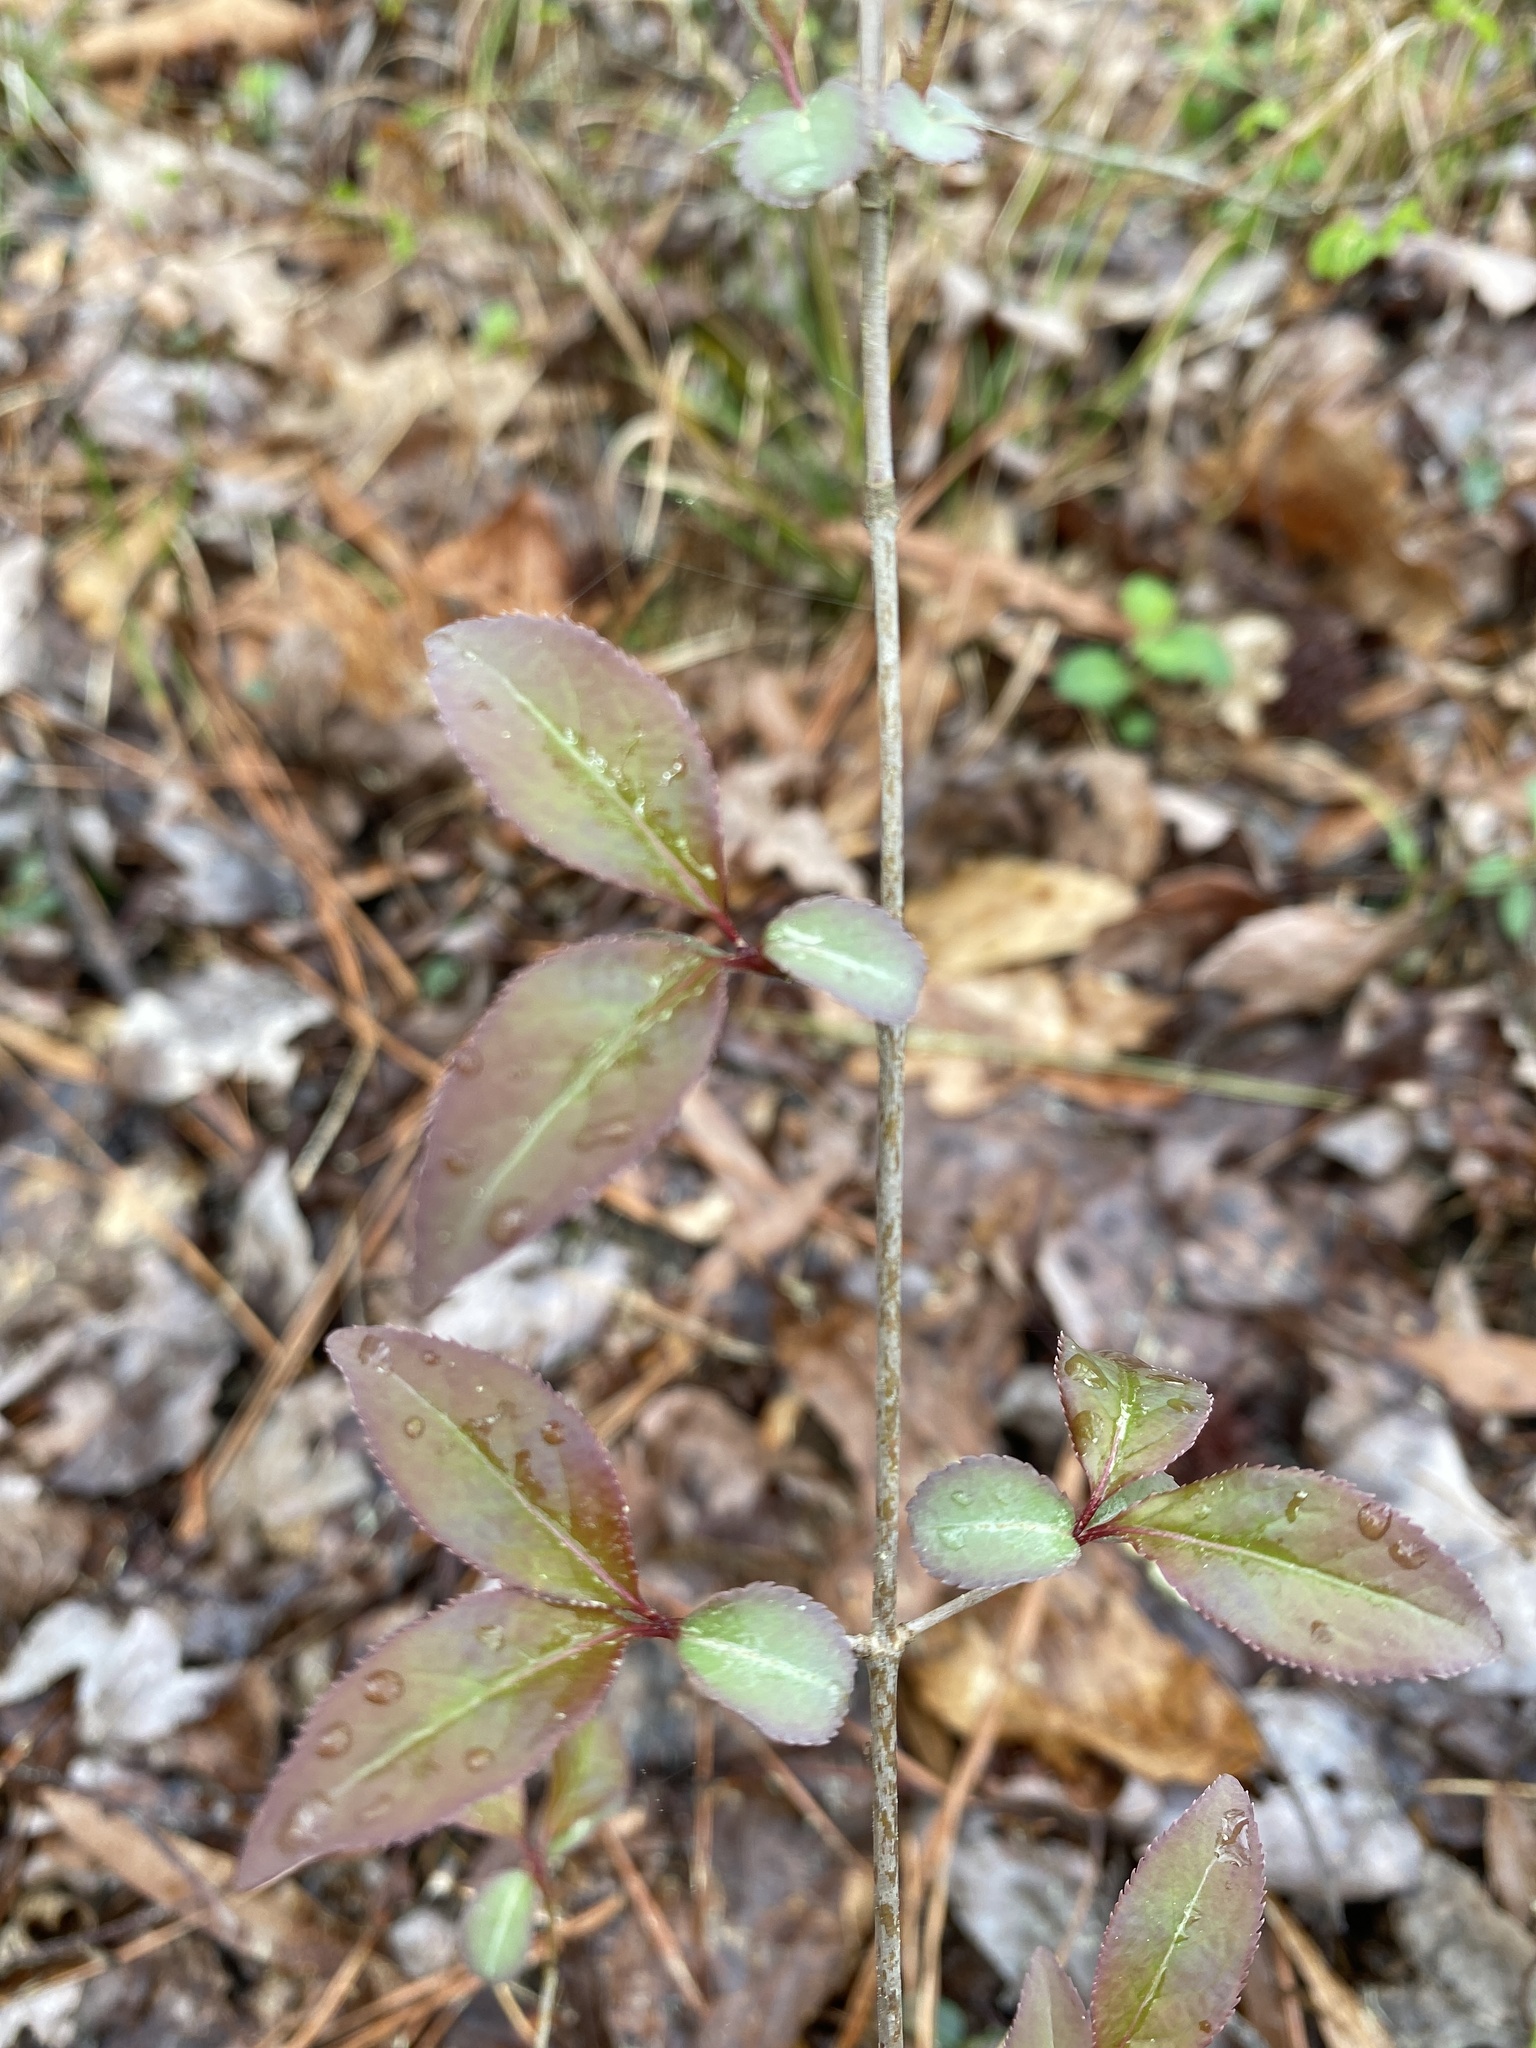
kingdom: Plantae
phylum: Tracheophyta
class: Magnoliopsida
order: Dipsacales
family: Viburnaceae
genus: Viburnum
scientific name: Viburnum prunifolium
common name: Black haw
